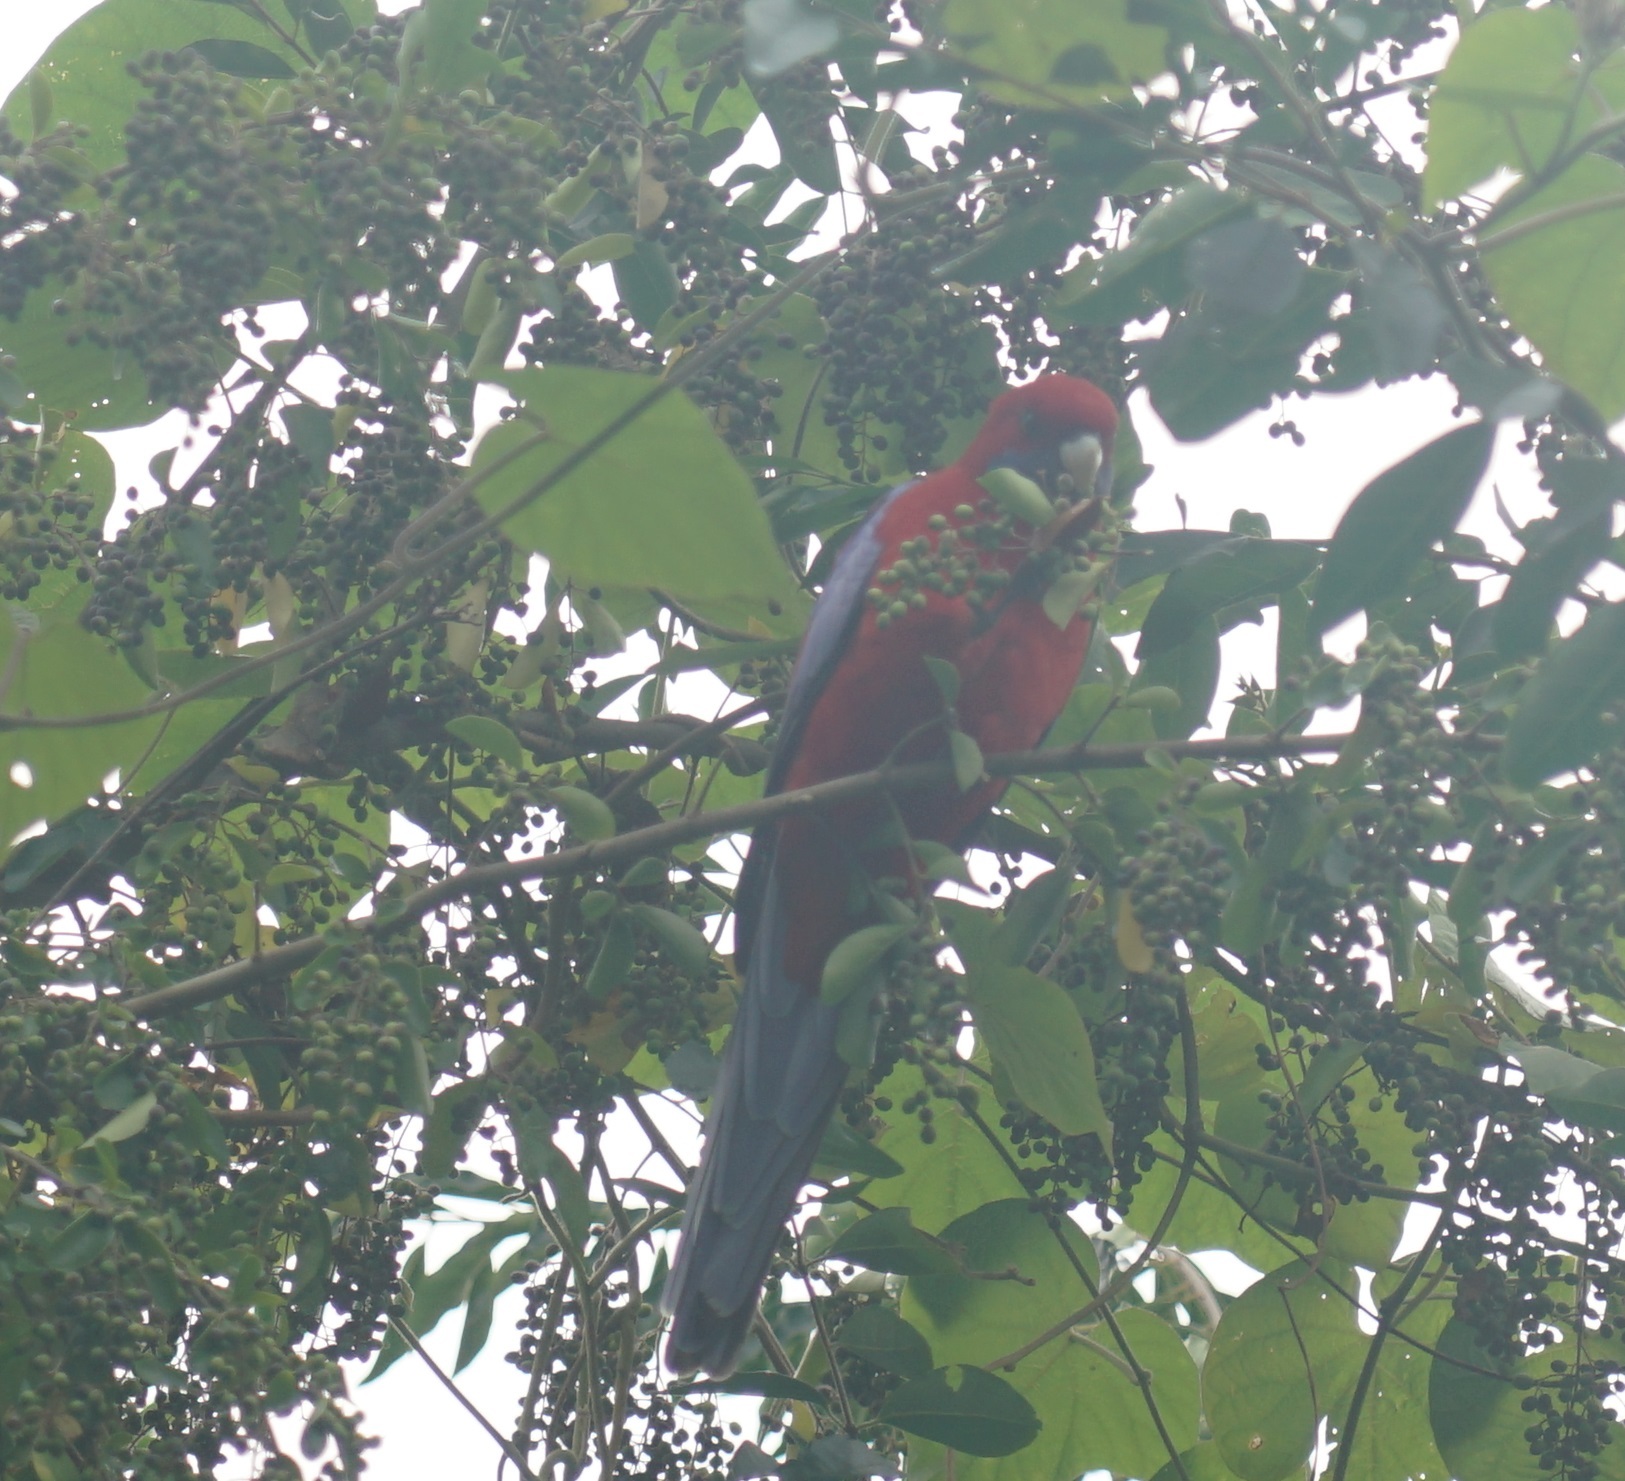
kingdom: Animalia
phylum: Chordata
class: Aves
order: Psittaciformes
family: Psittacidae
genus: Platycercus
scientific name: Platycercus elegans
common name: Crimson rosella
